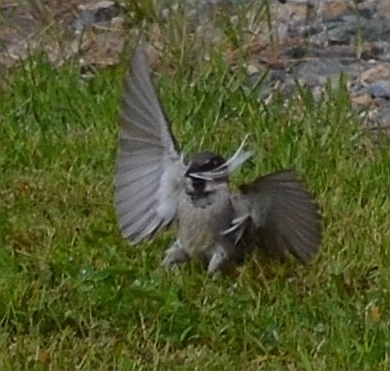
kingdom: Animalia
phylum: Chordata
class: Aves
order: Passeriformes
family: Passeridae
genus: Passer
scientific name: Passer domesticus
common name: House sparrow
